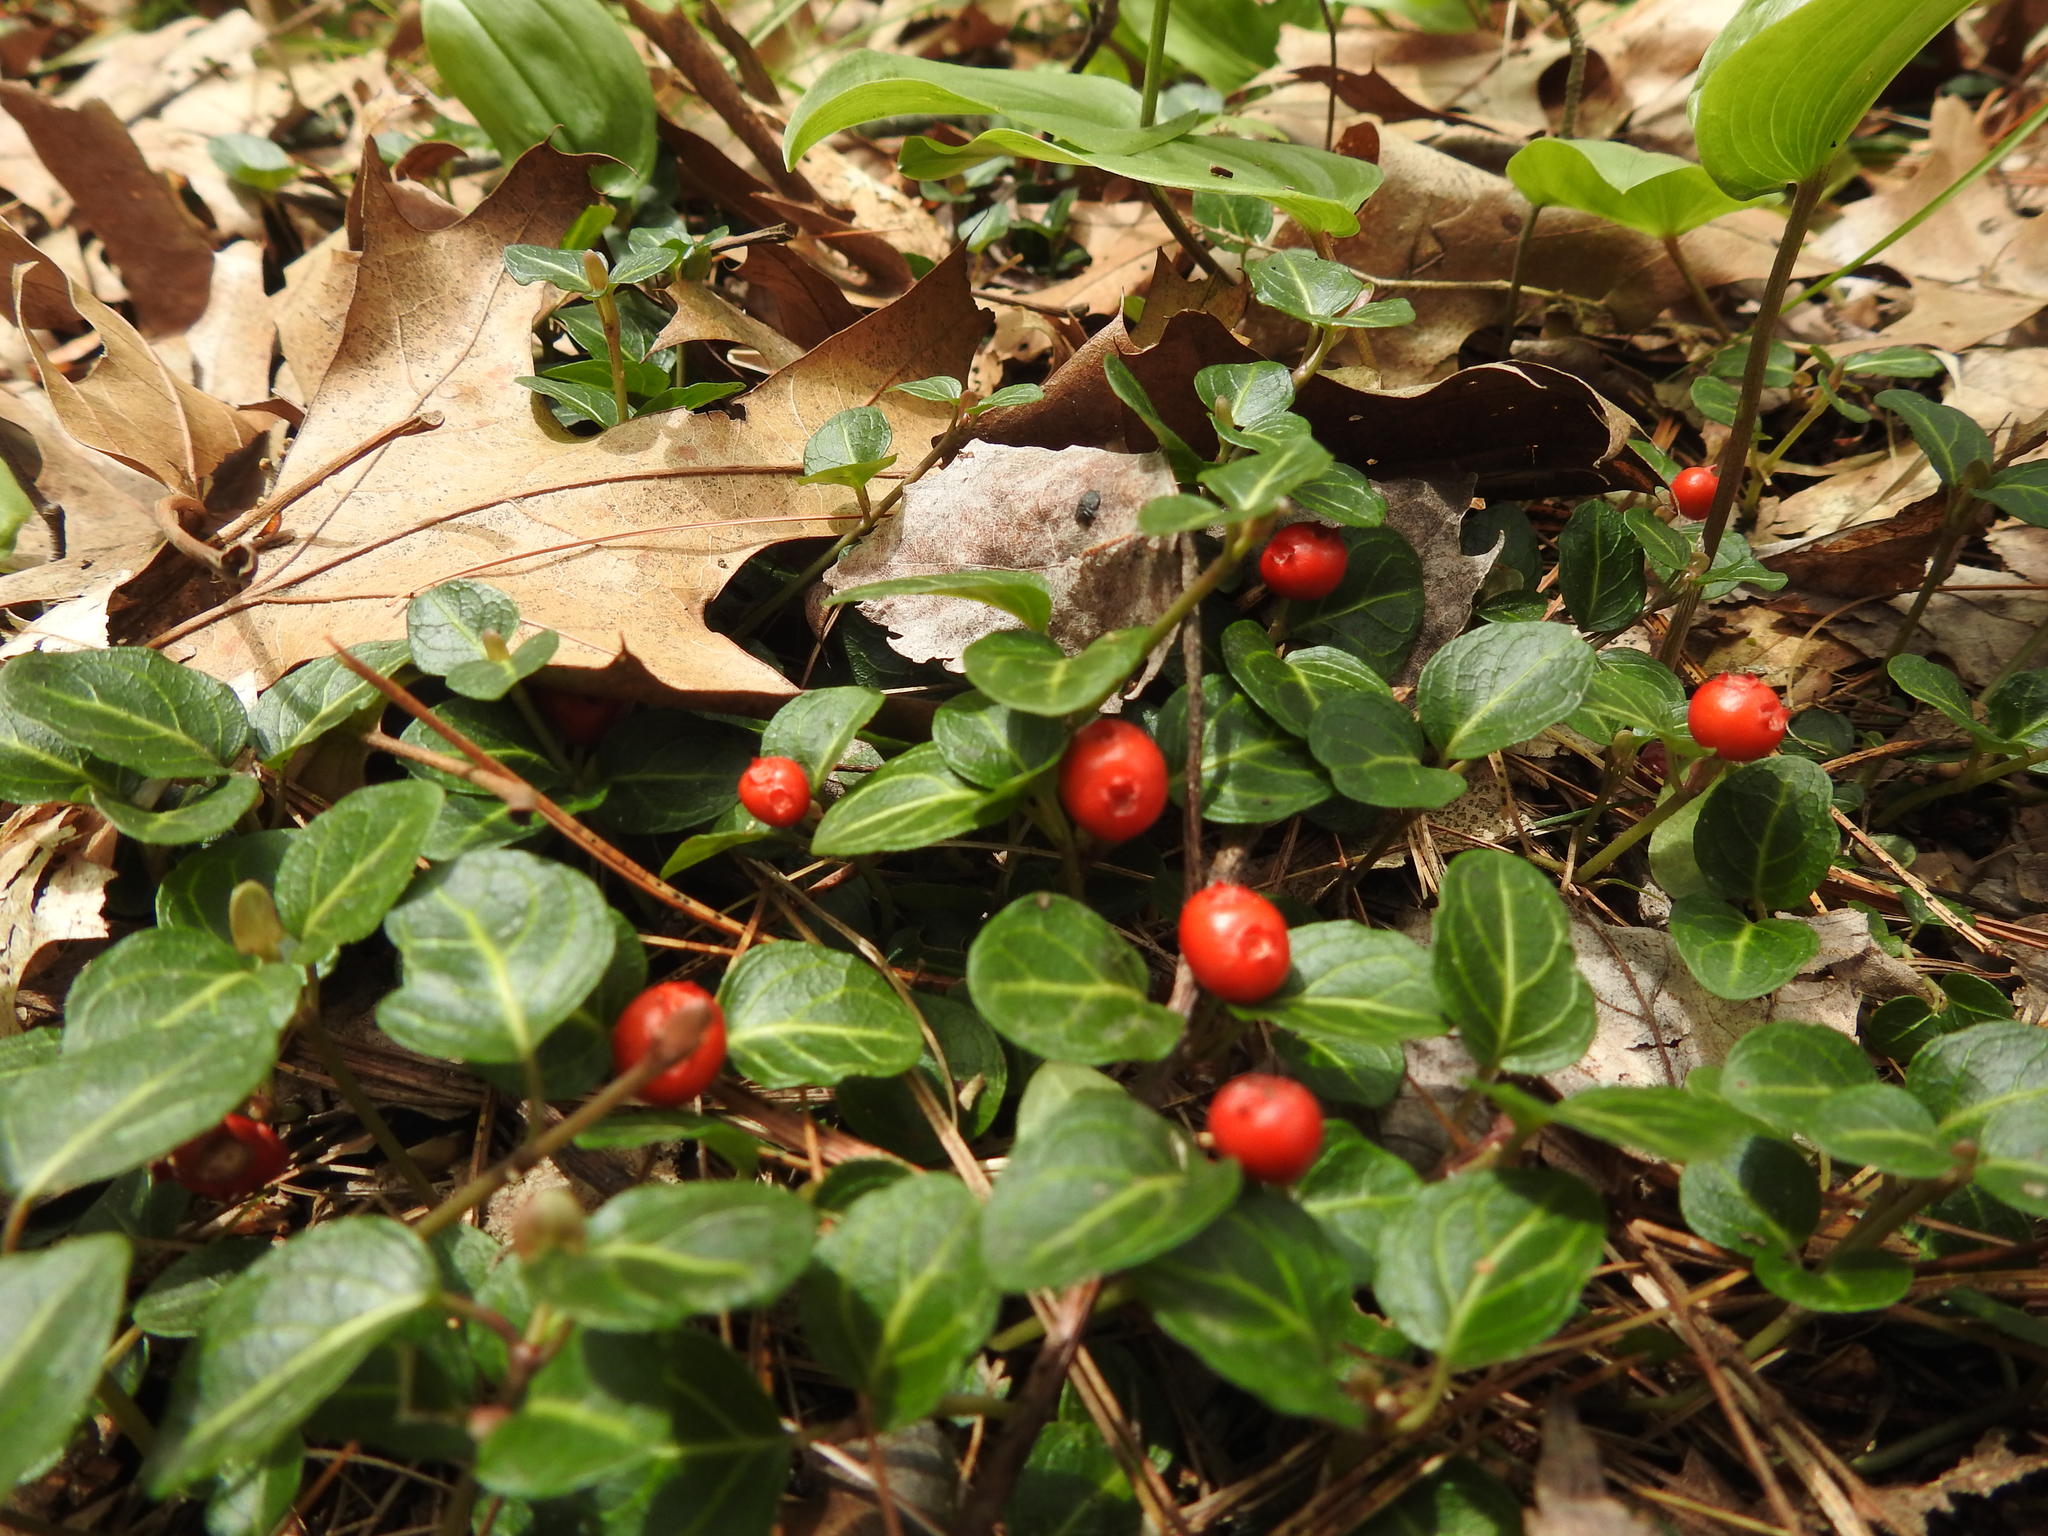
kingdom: Plantae
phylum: Tracheophyta
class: Magnoliopsida
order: Gentianales
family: Rubiaceae
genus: Mitchella
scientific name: Mitchella repens
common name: Partridge-berry
